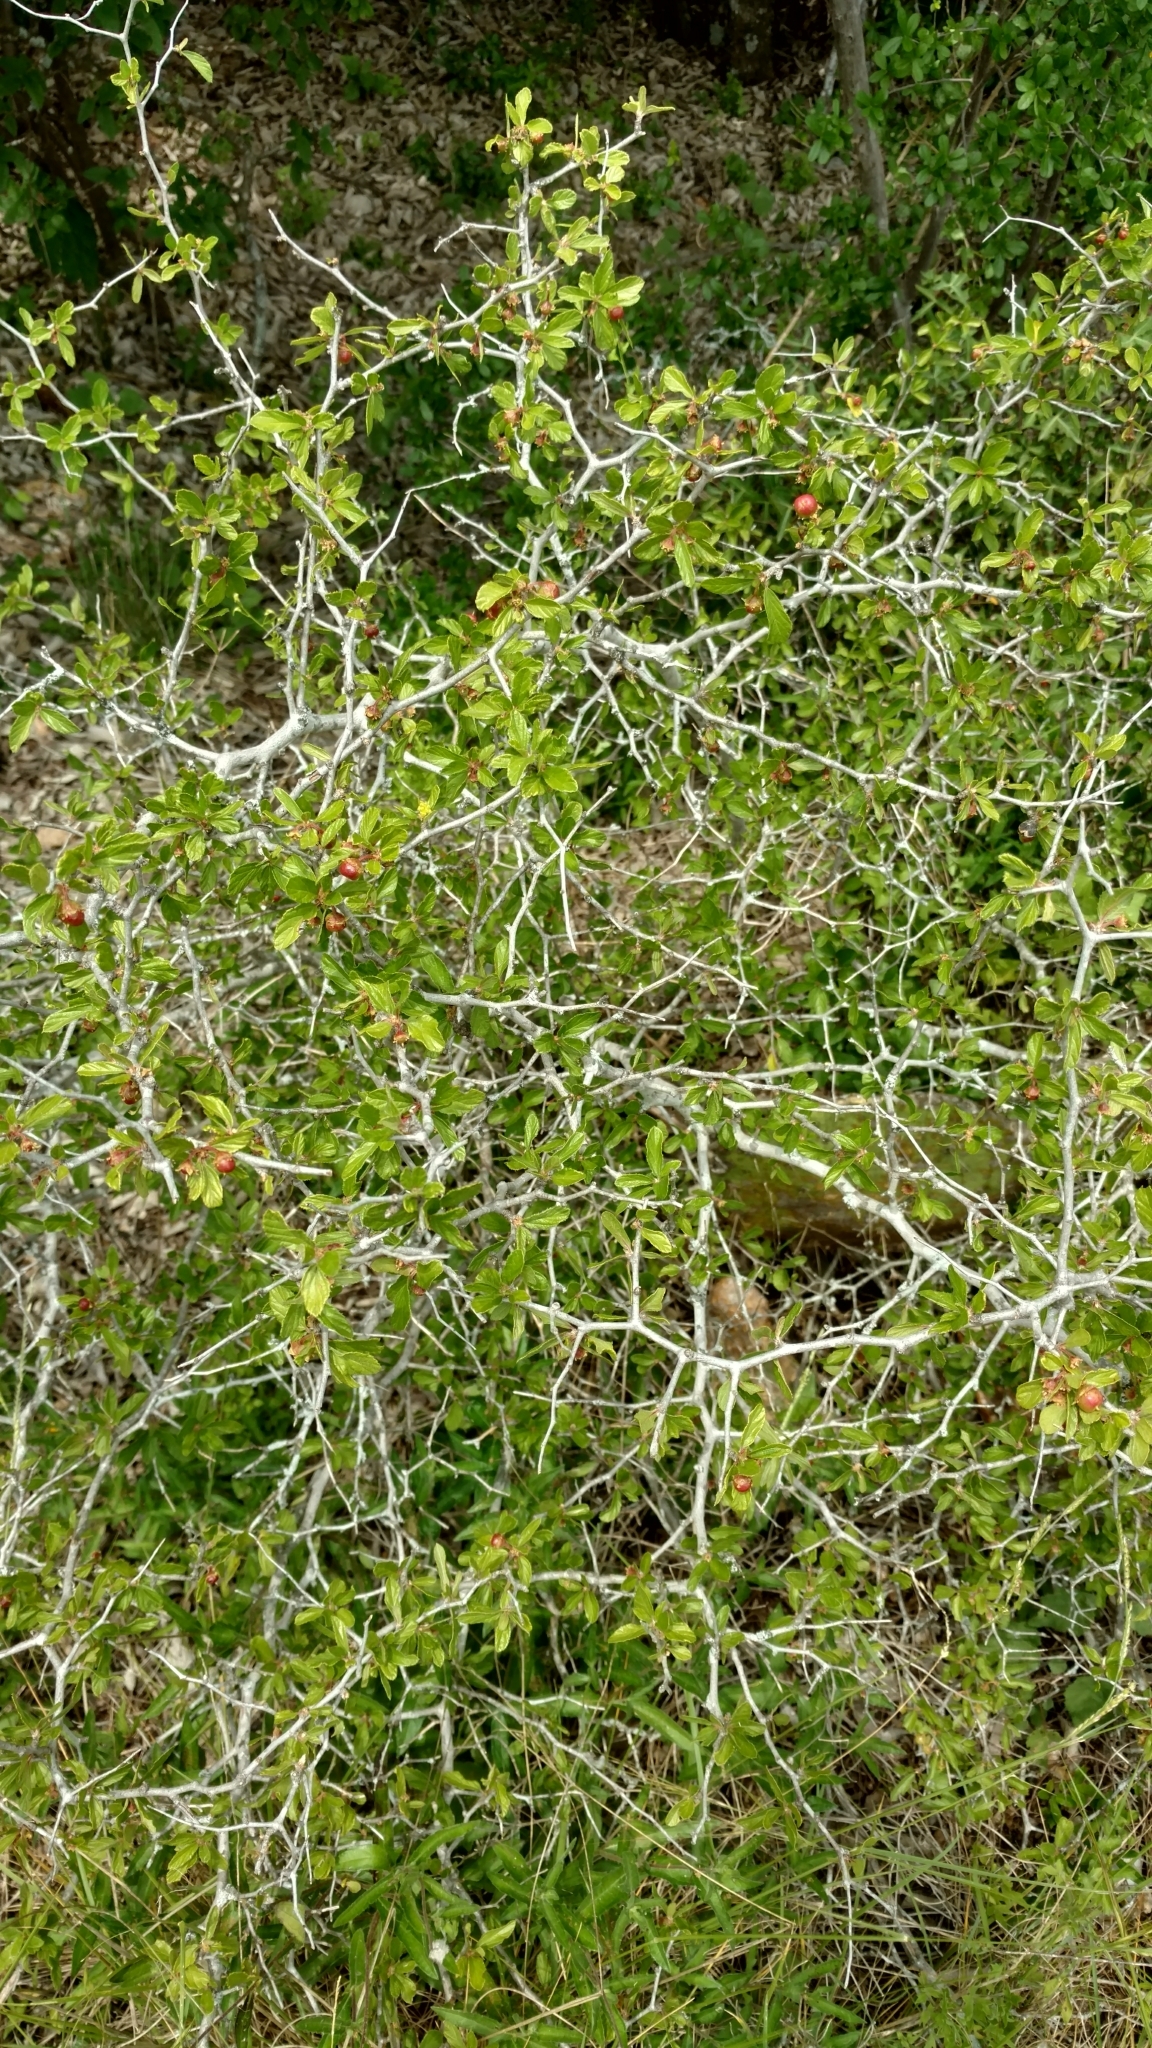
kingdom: Plantae
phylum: Tracheophyta
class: Magnoliopsida
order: Rosales
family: Rhamnaceae
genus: Colubrina
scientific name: Colubrina texensis
